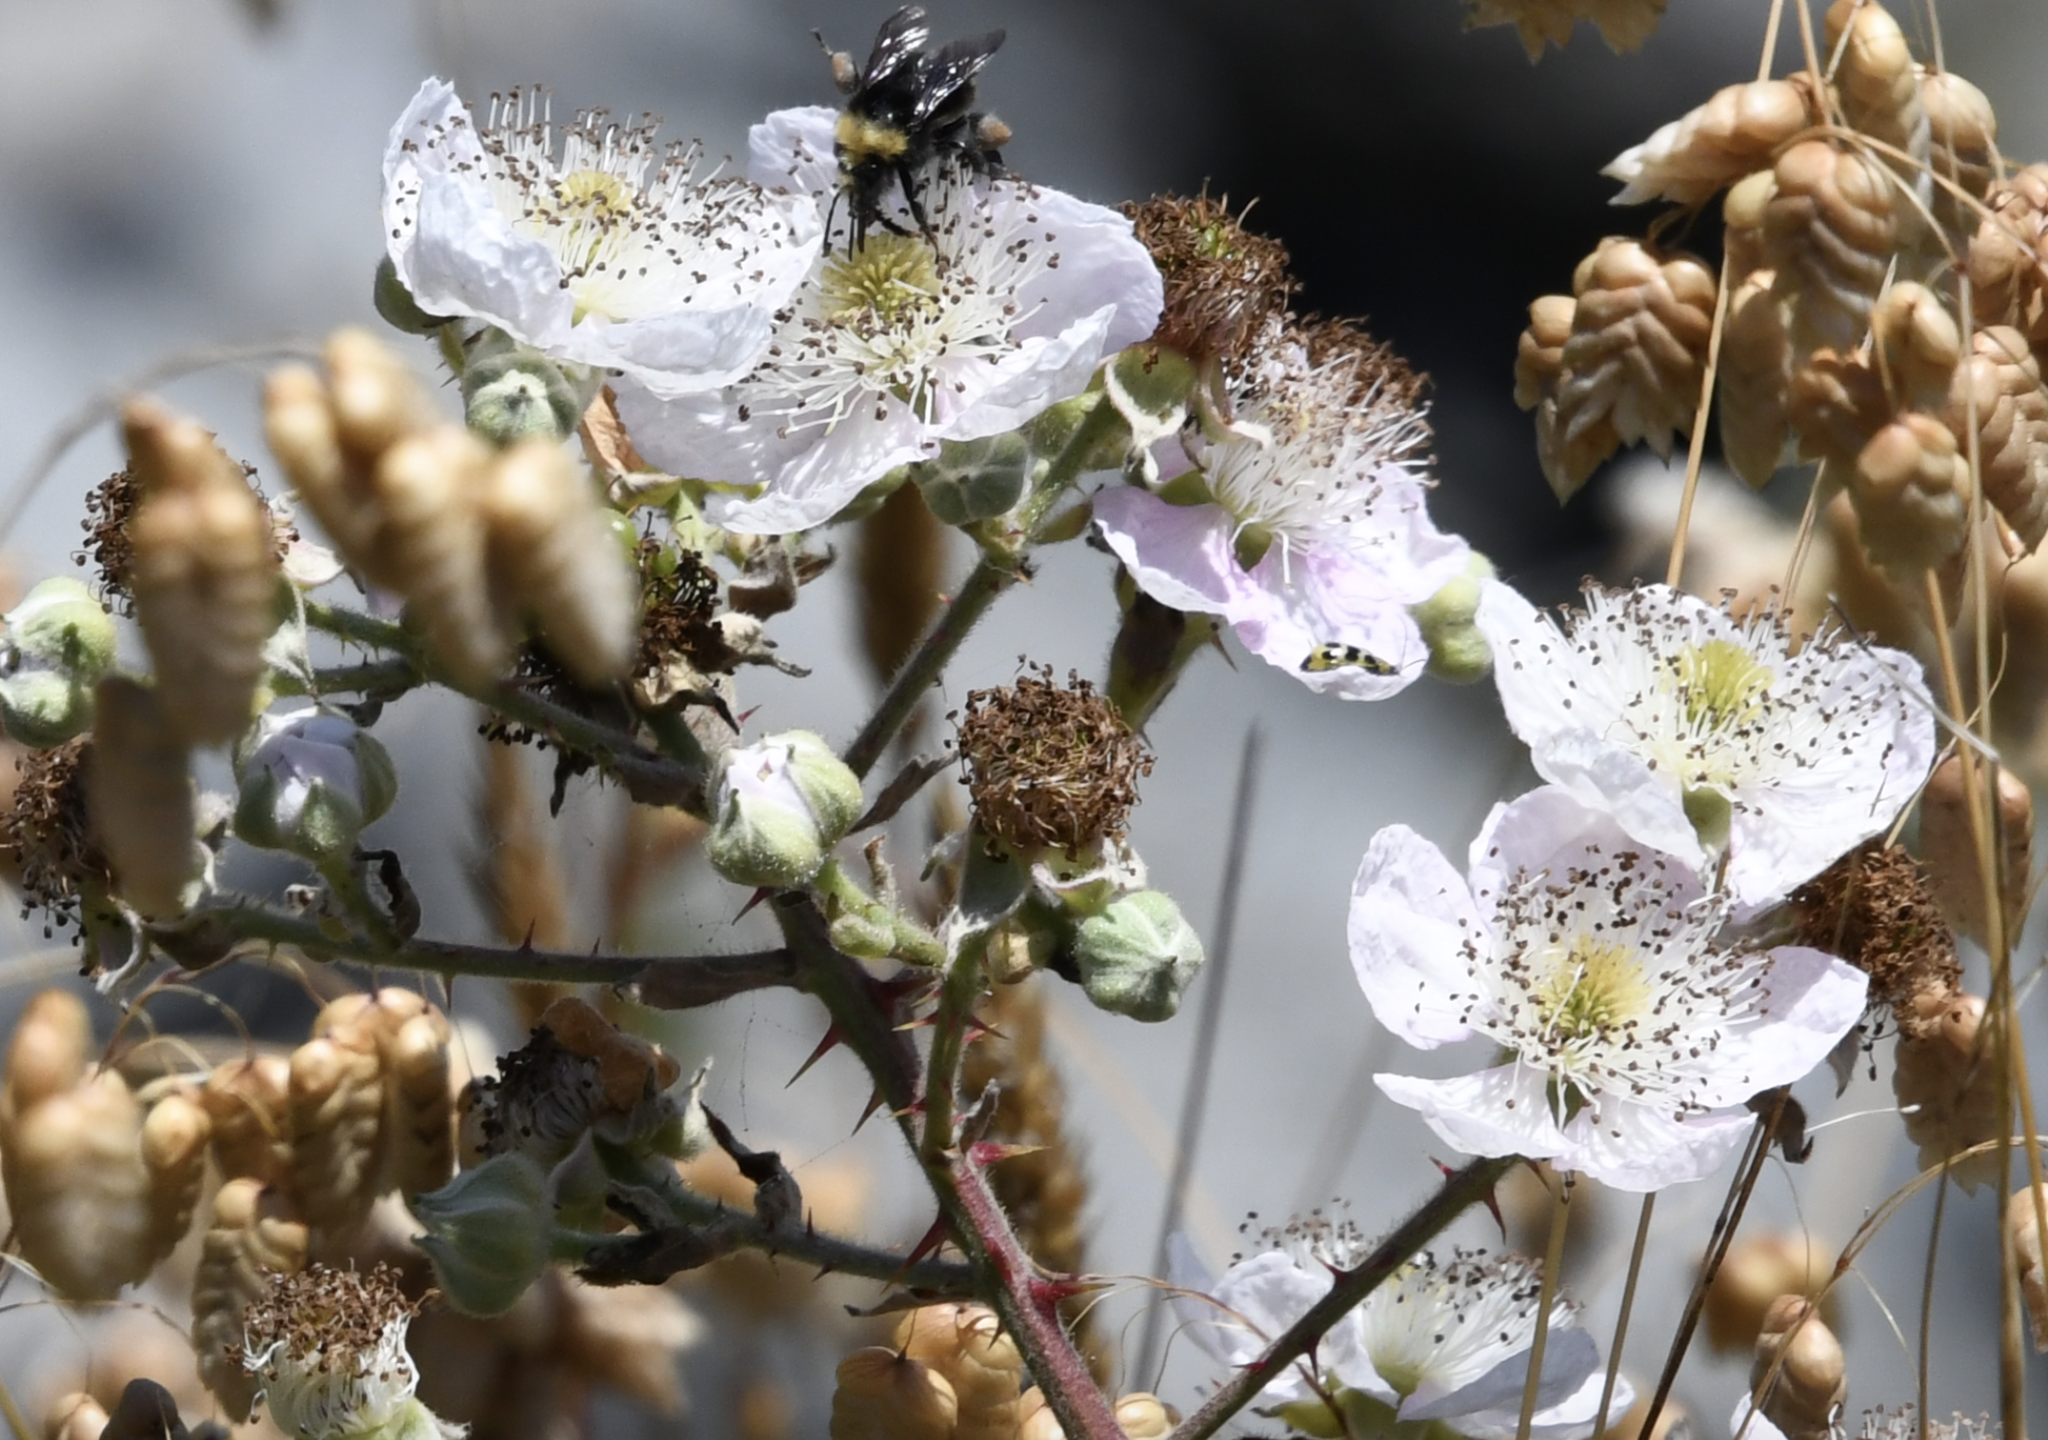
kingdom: Plantae
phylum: Tracheophyta
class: Magnoliopsida
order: Rosales
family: Rosaceae
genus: Rubus
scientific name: Rubus armeniacus
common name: Himalayan blackberry
